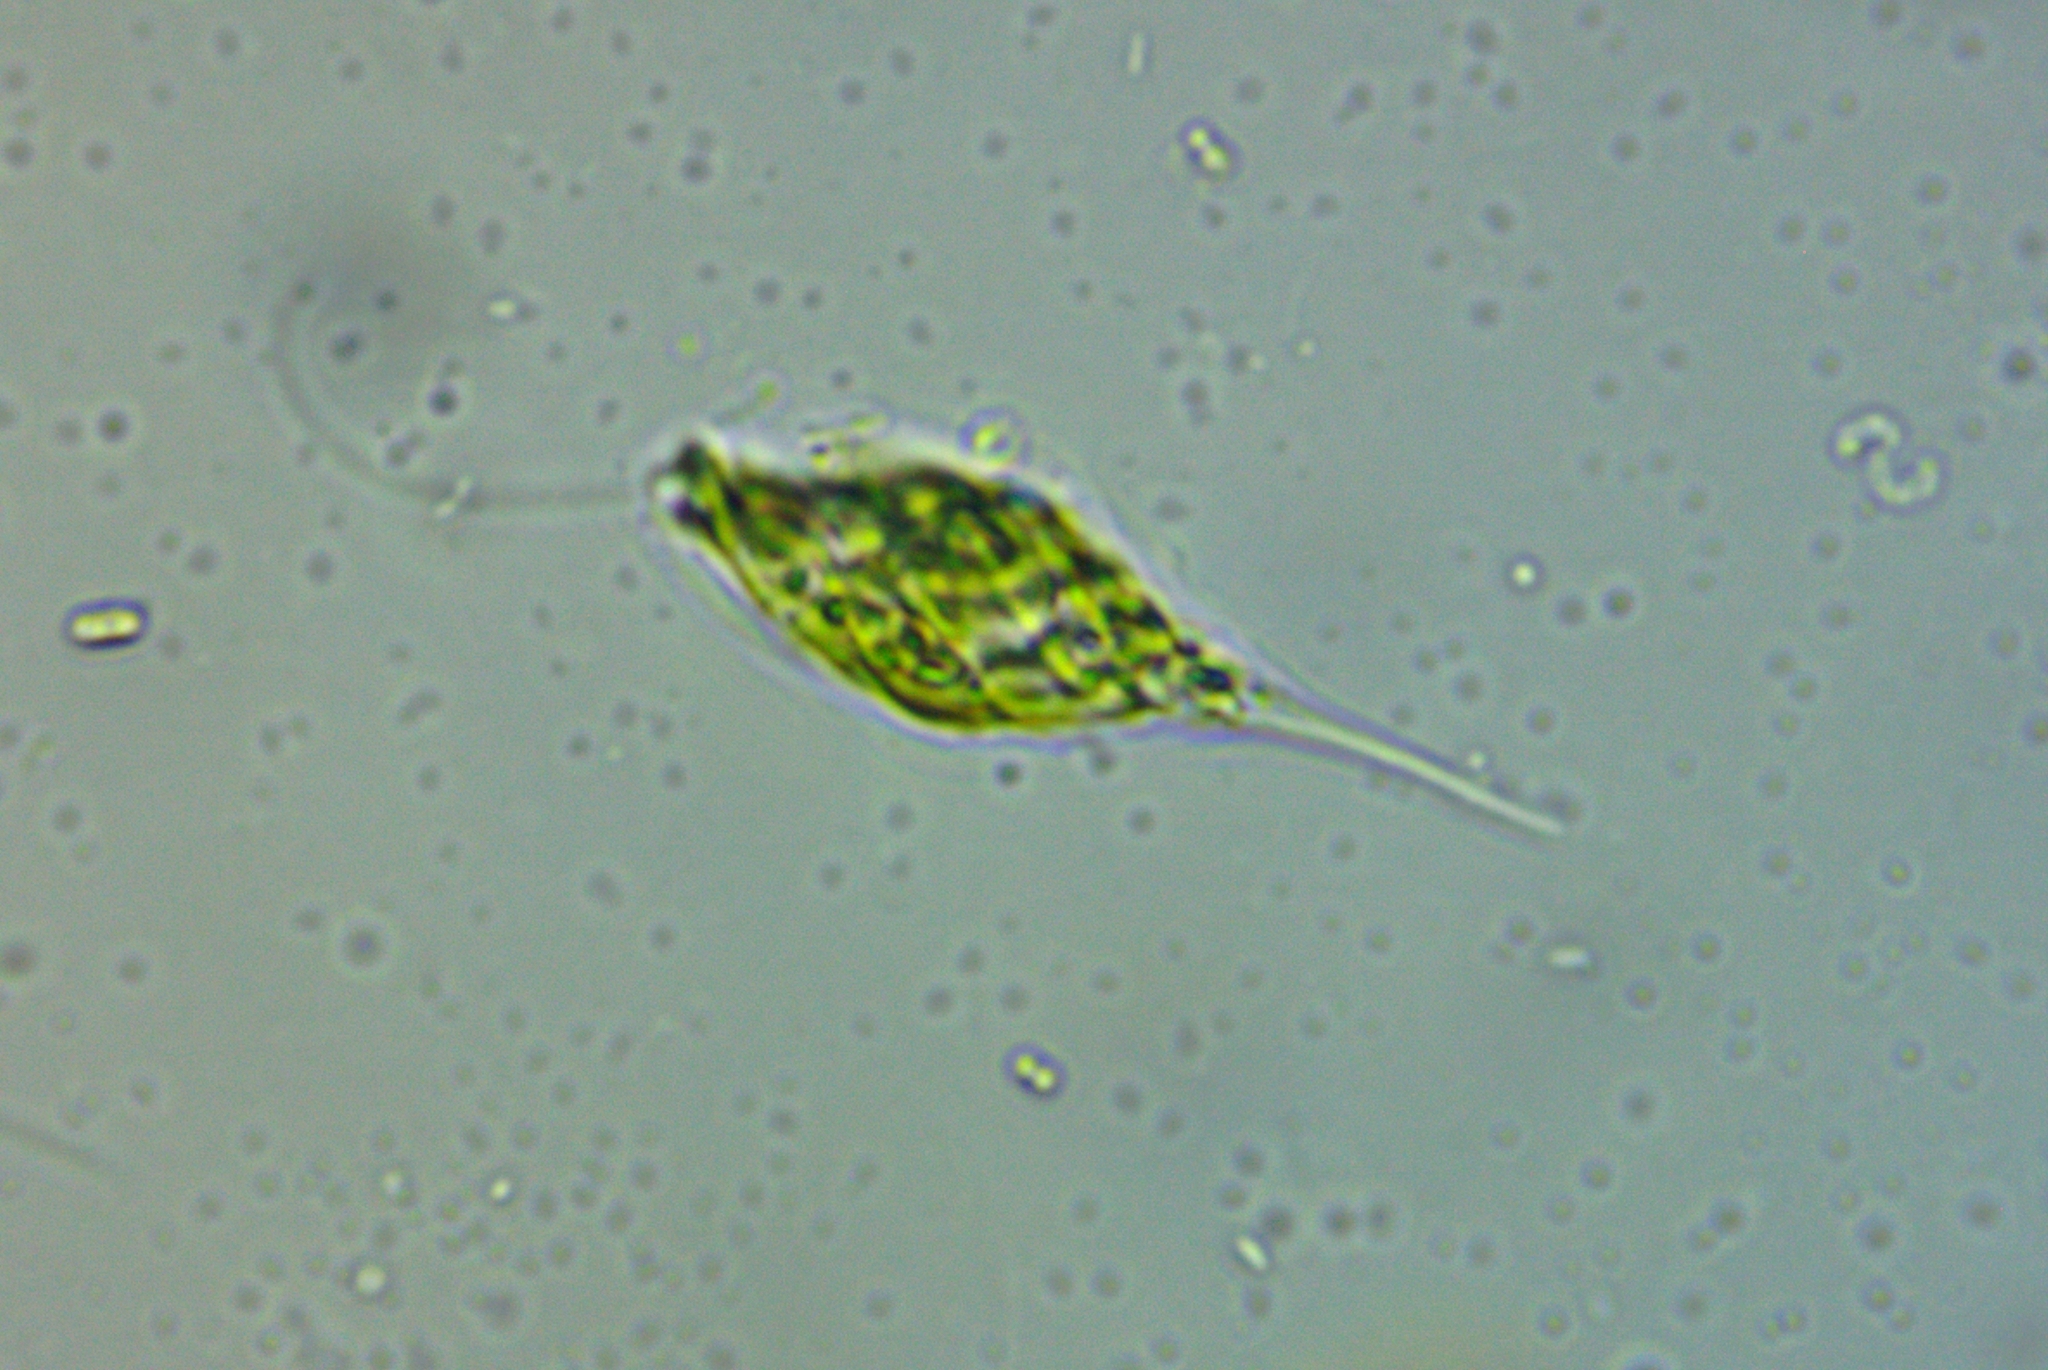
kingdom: Protozoa
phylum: Euglenozoa
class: Euglenoidea
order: Euglenida
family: Euglenaceae
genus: Monomorphina
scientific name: Monomorphina pyrum
